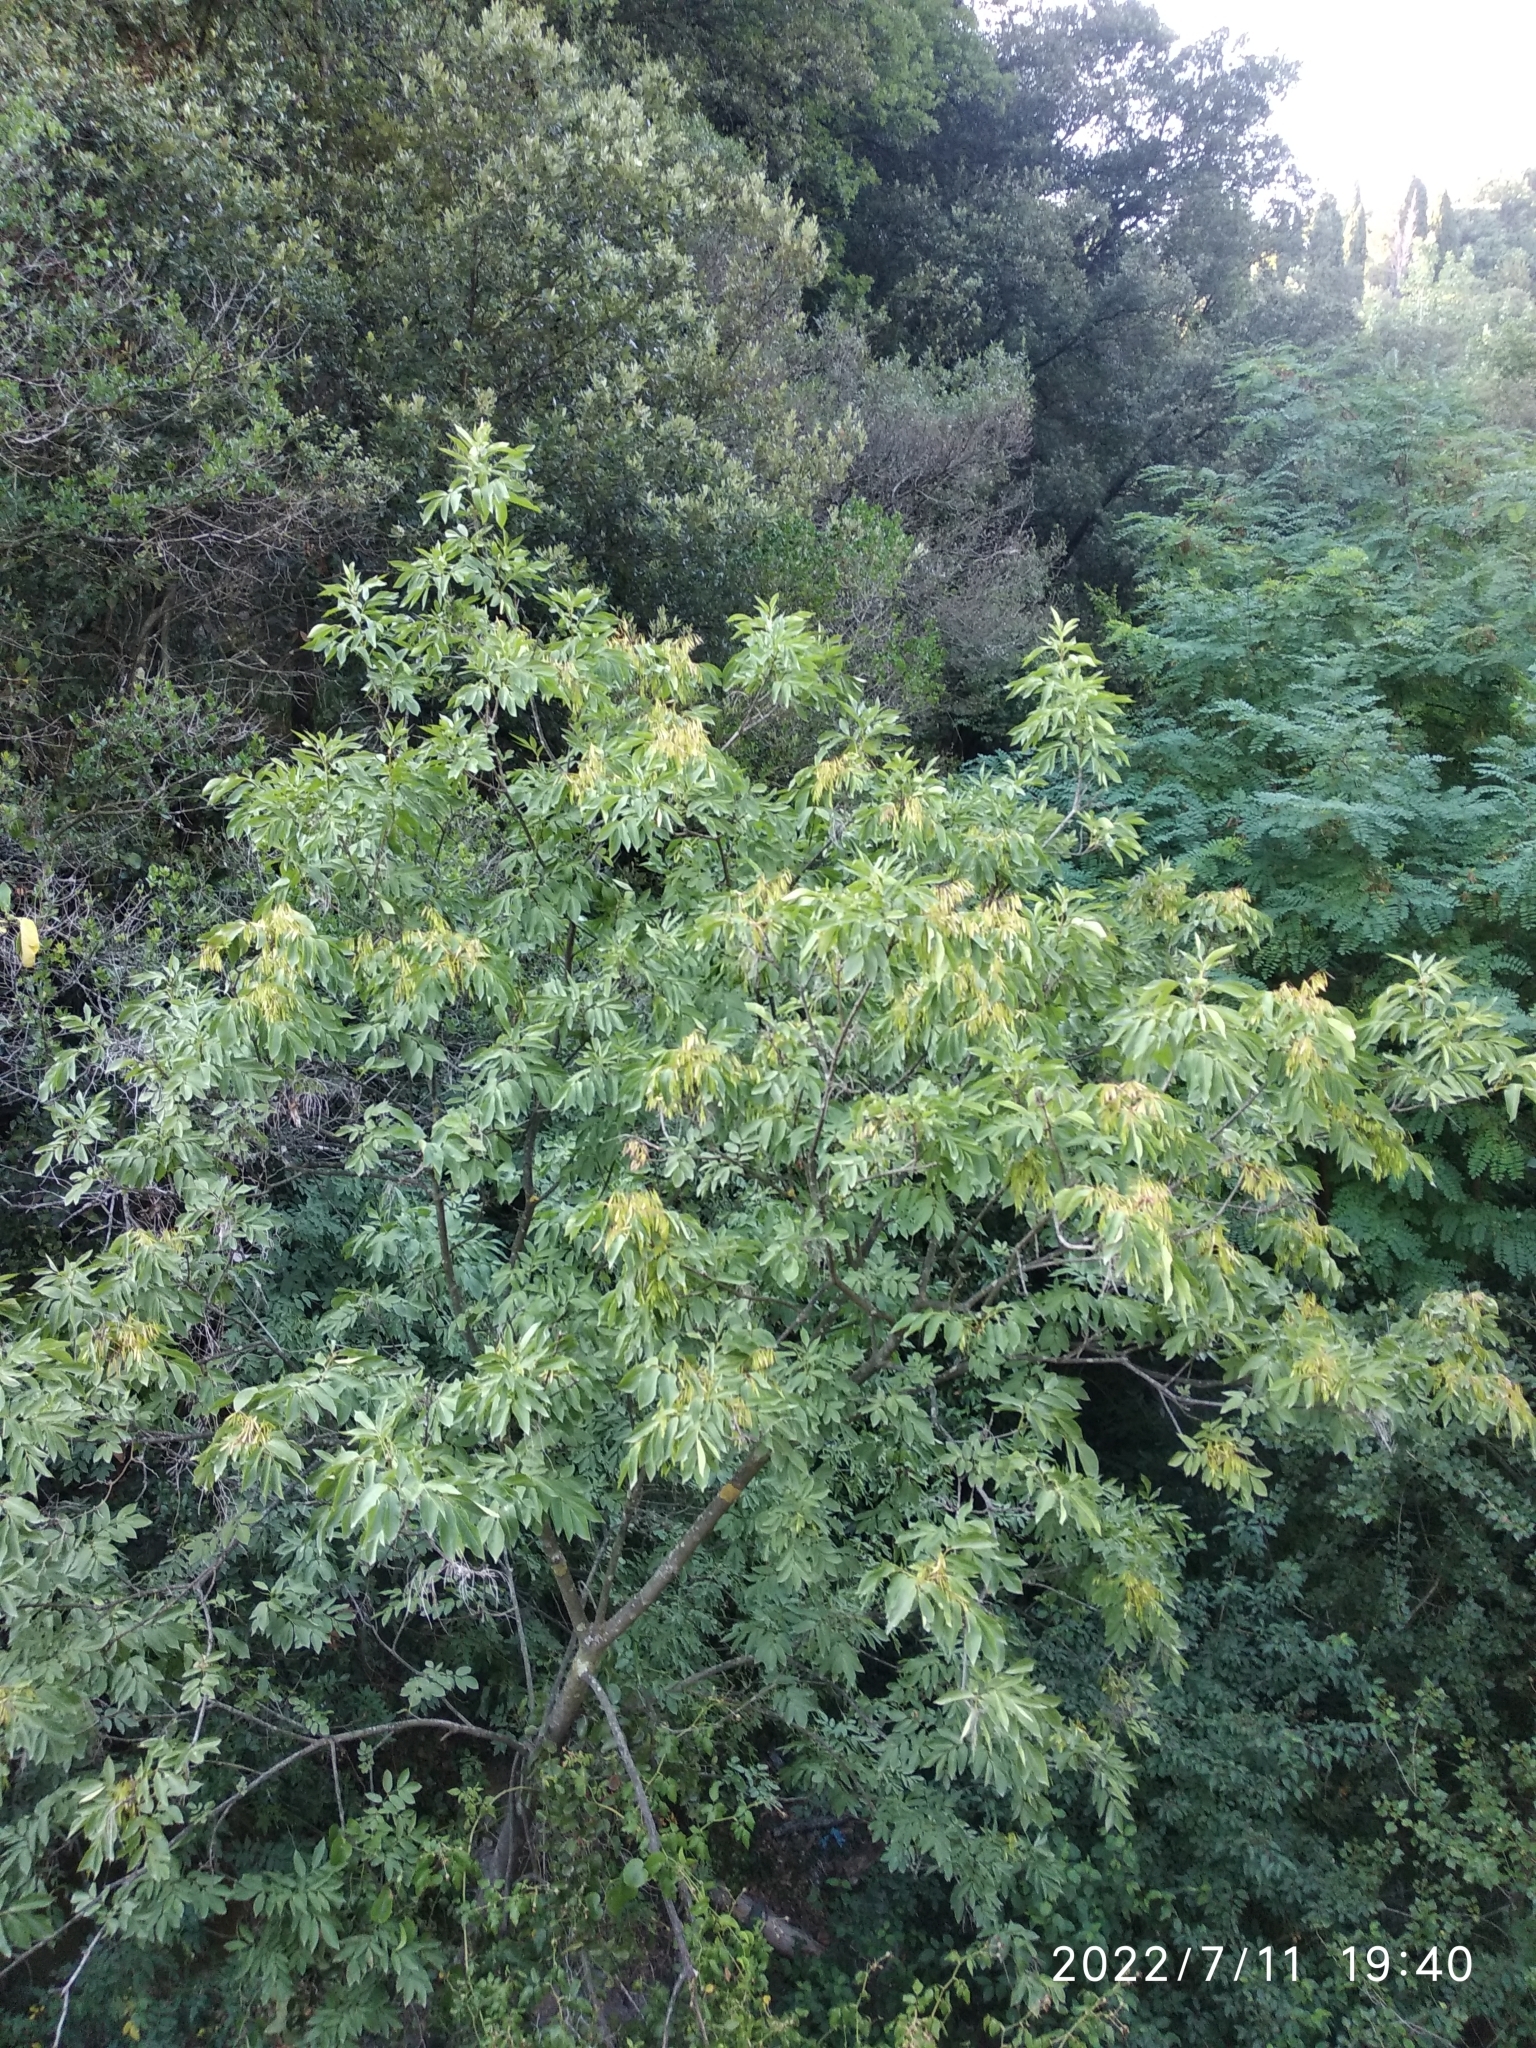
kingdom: Plantae
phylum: Tracheophyta
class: Magnoliopsida
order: Lamiales
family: Oleaceae
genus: Fraxinus
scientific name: Fraxinus ornus
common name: Manna ash
